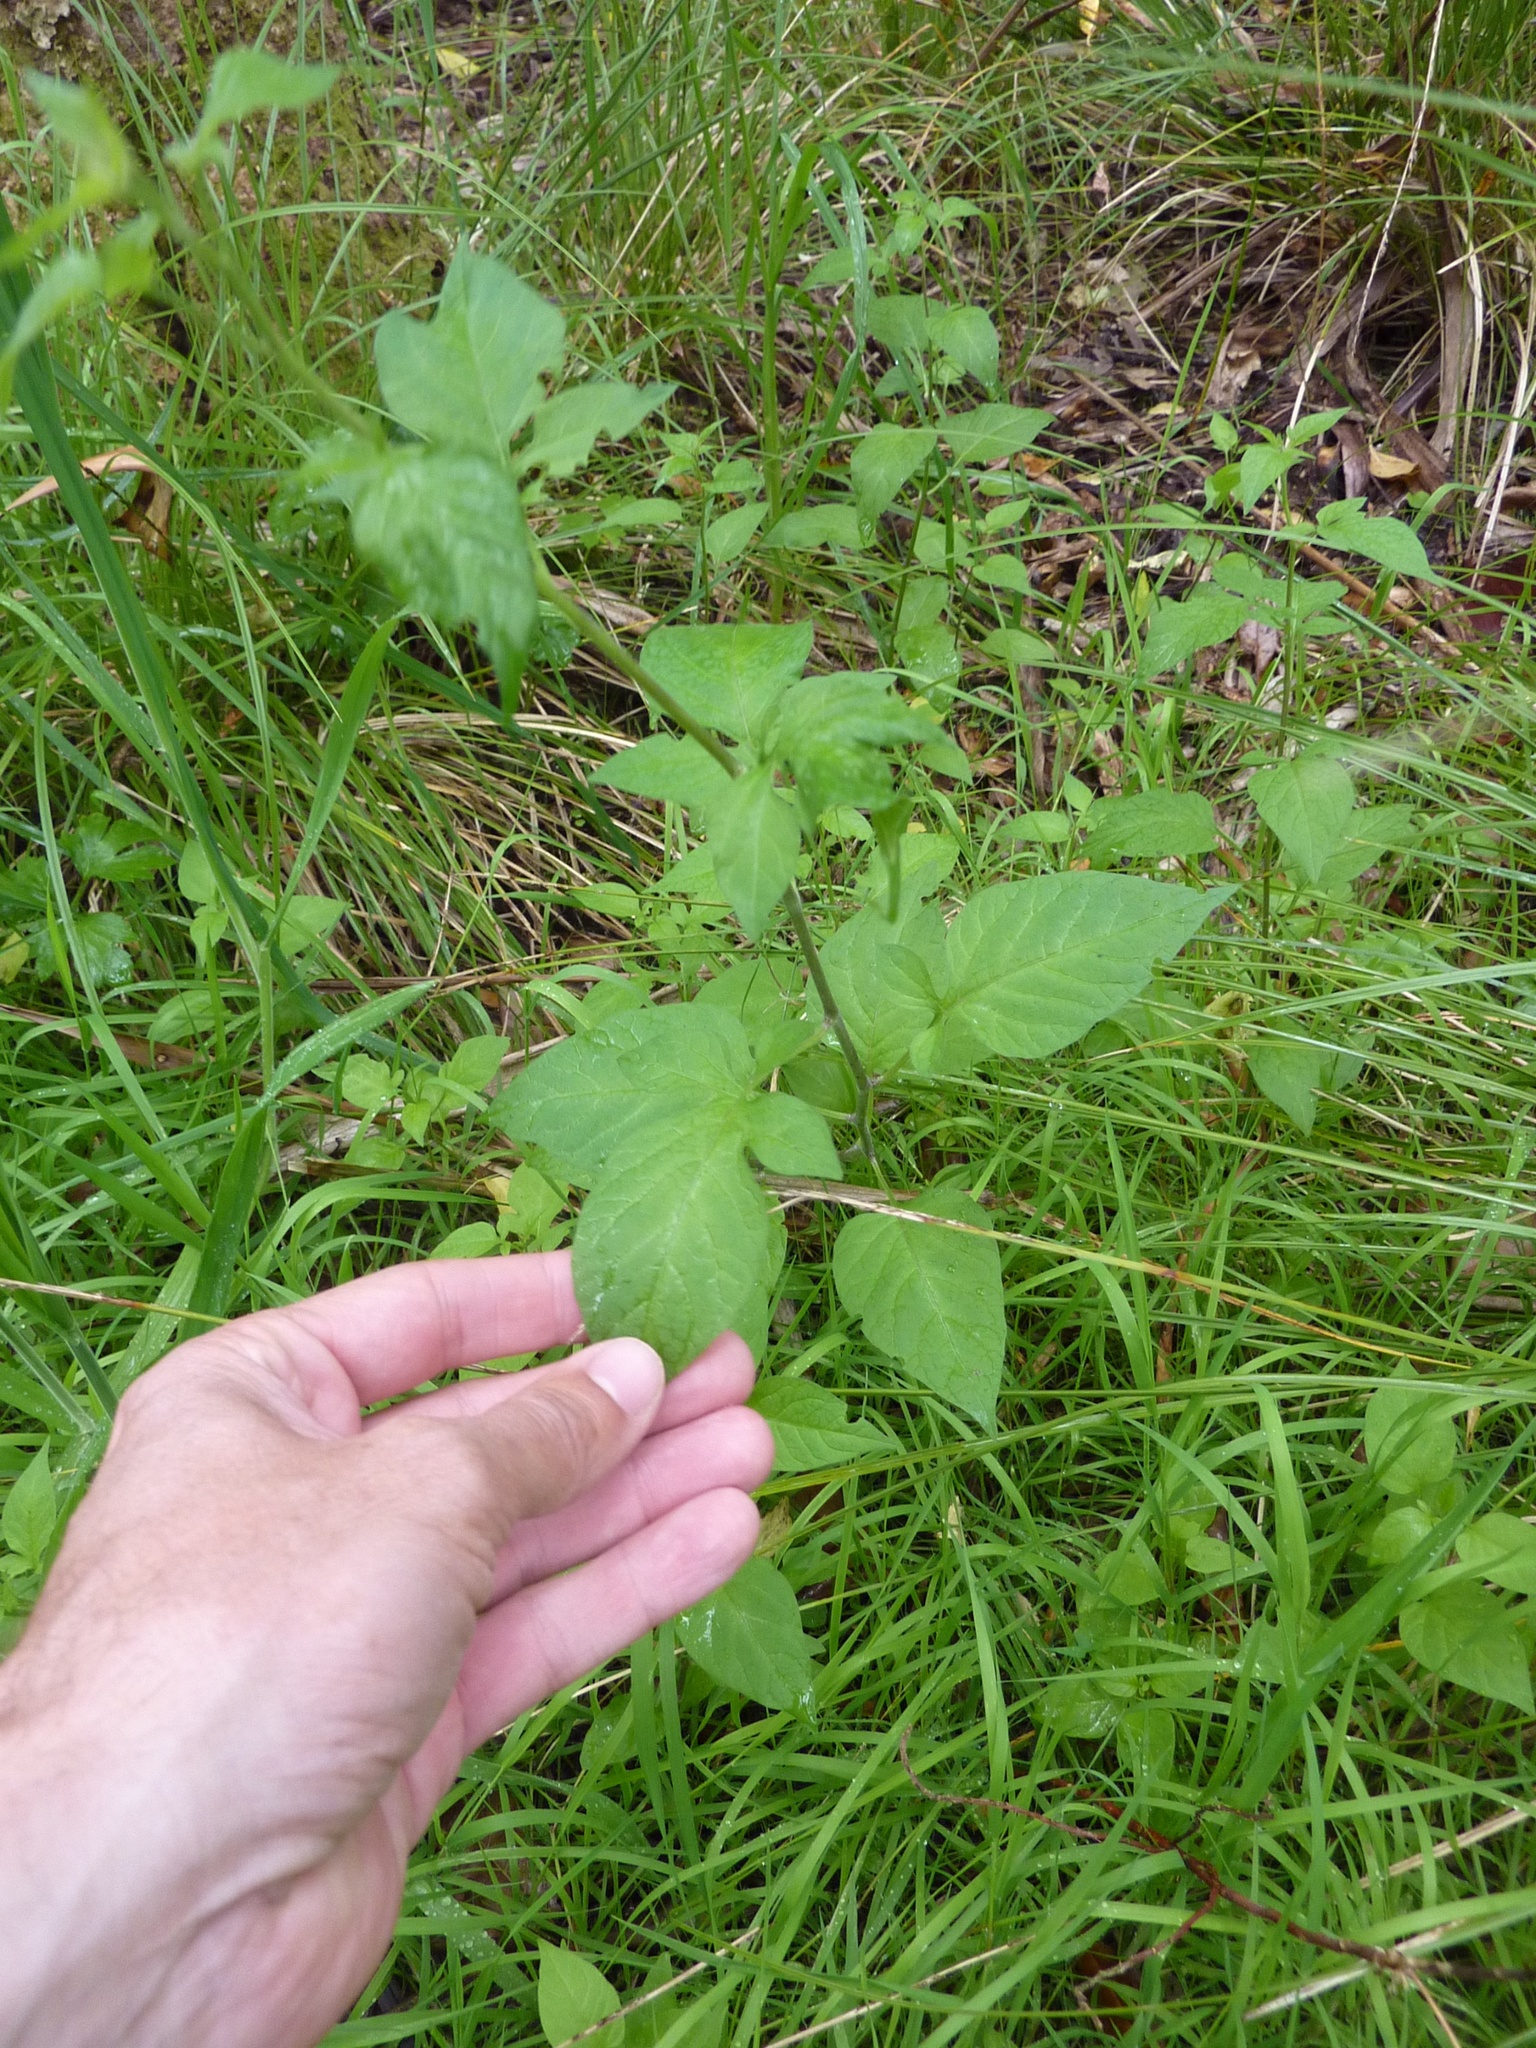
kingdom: Plantae
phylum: Tracheophyta
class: Magnoliopsida
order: Solanales
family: Solanaceae
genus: Solanum
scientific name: Solanum dulcamara
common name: Climbing nightshade
